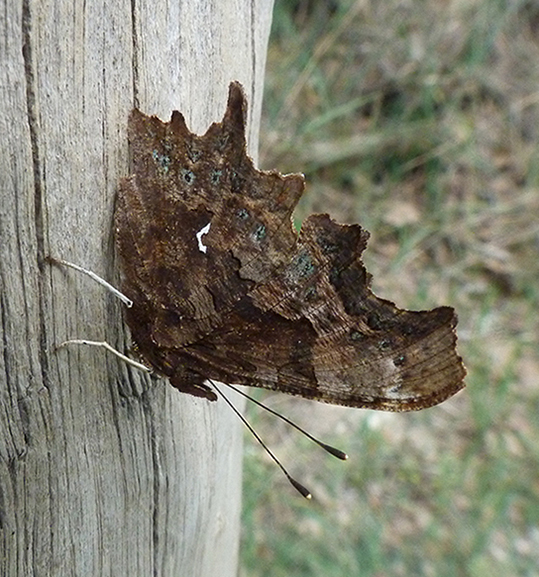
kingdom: Animalia
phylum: Arthropoda
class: Insecta
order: Lepidoptera
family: Nymphalidae
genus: Polygonia
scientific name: Polygonia c-album
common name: Comma
